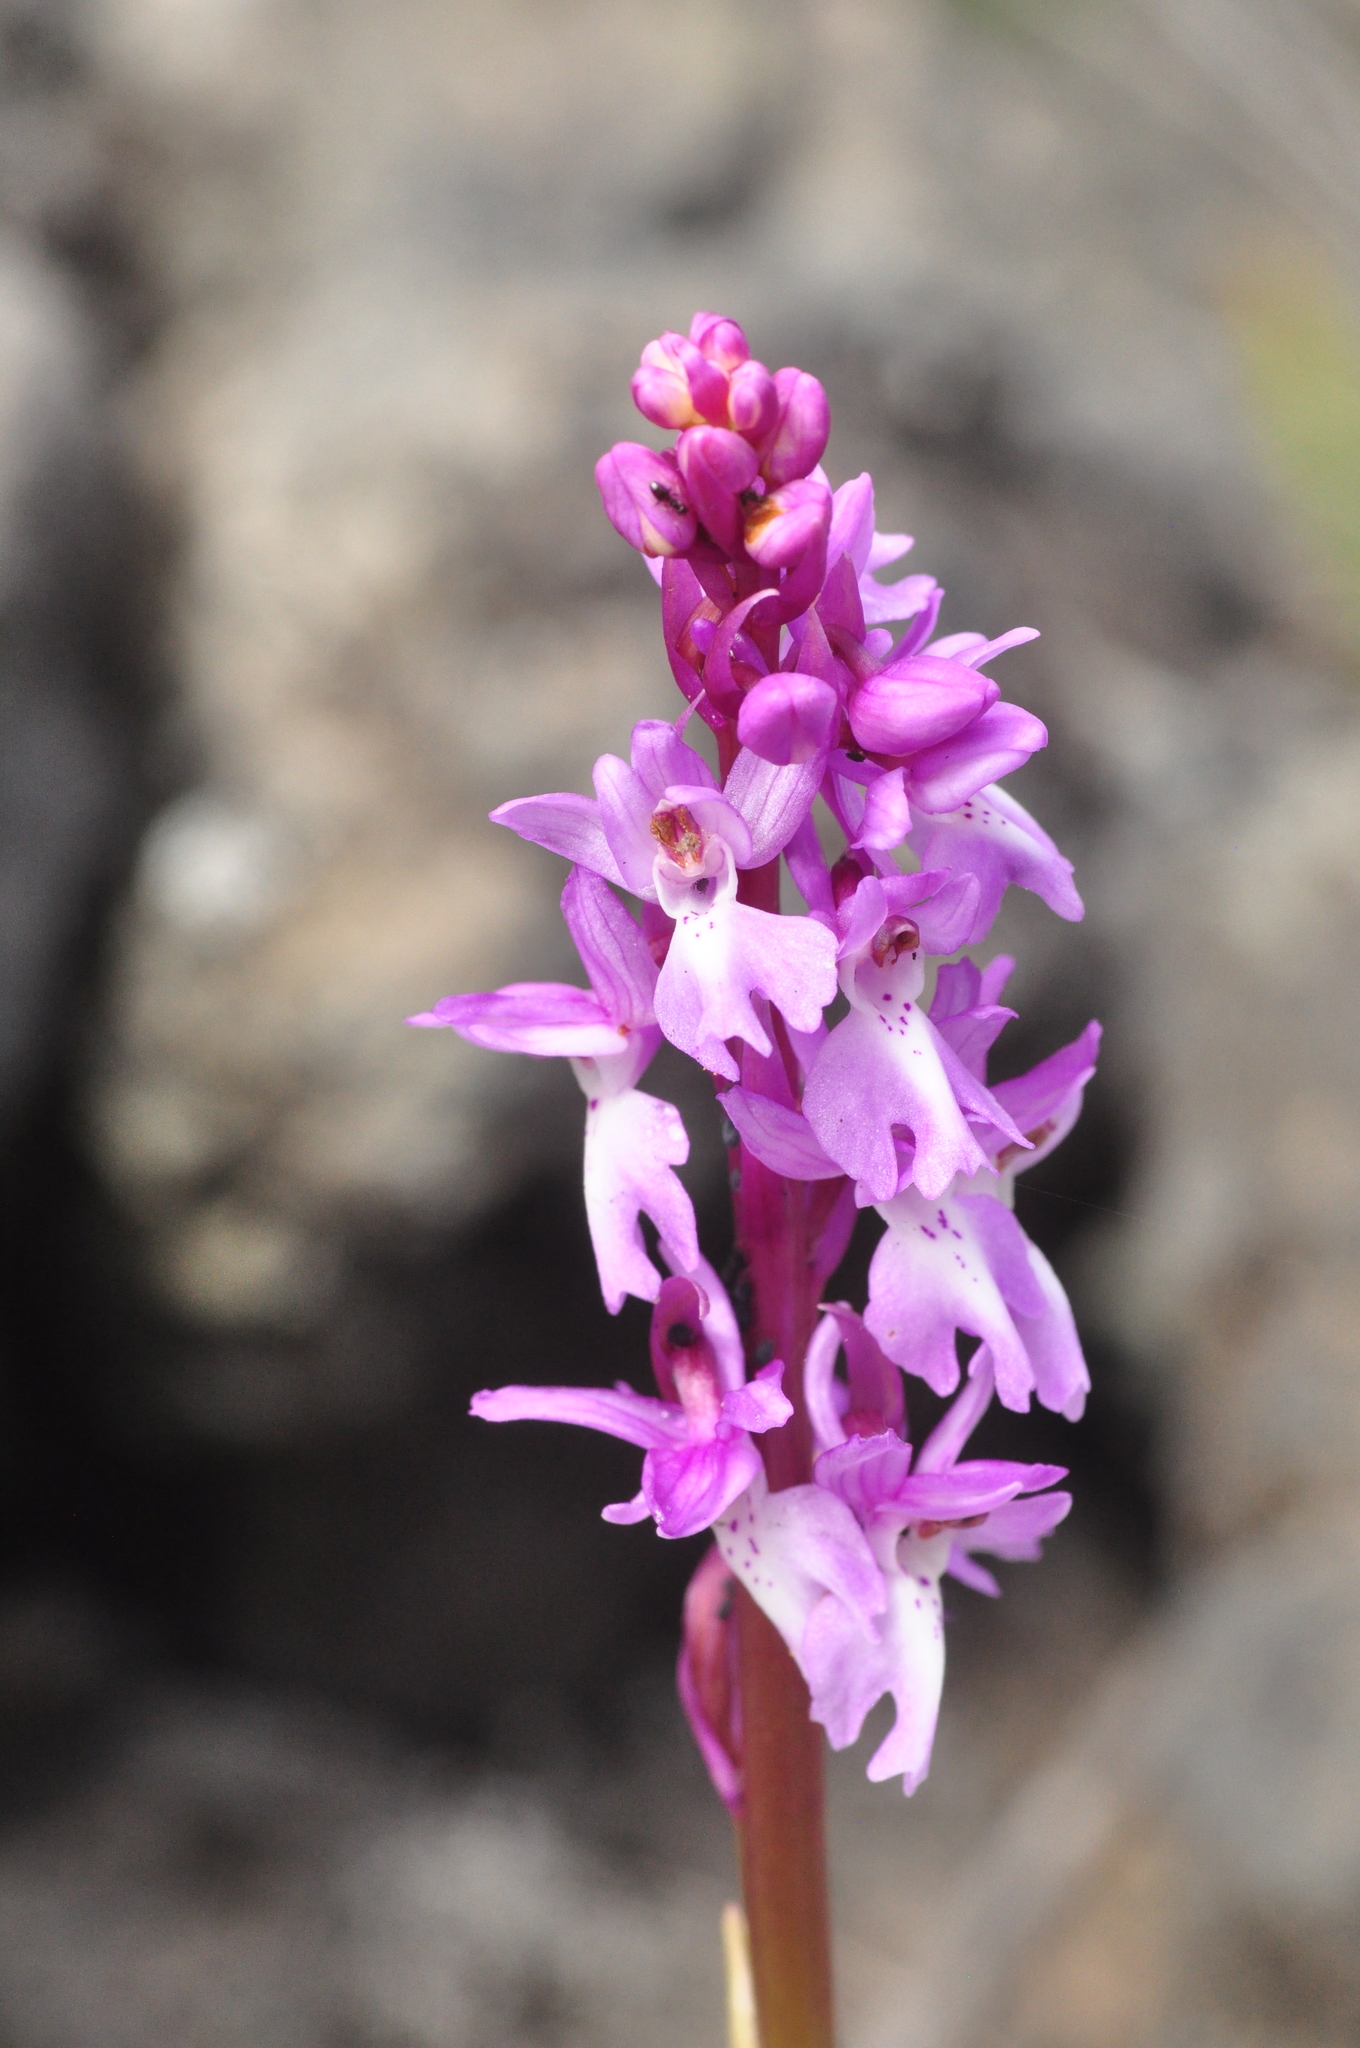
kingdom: Plantae
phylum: Tracheophyta
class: Liliopsida
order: Asparagales
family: Orchidaceae
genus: Orchis
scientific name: Orchis mascula
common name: Early-purple orchid
